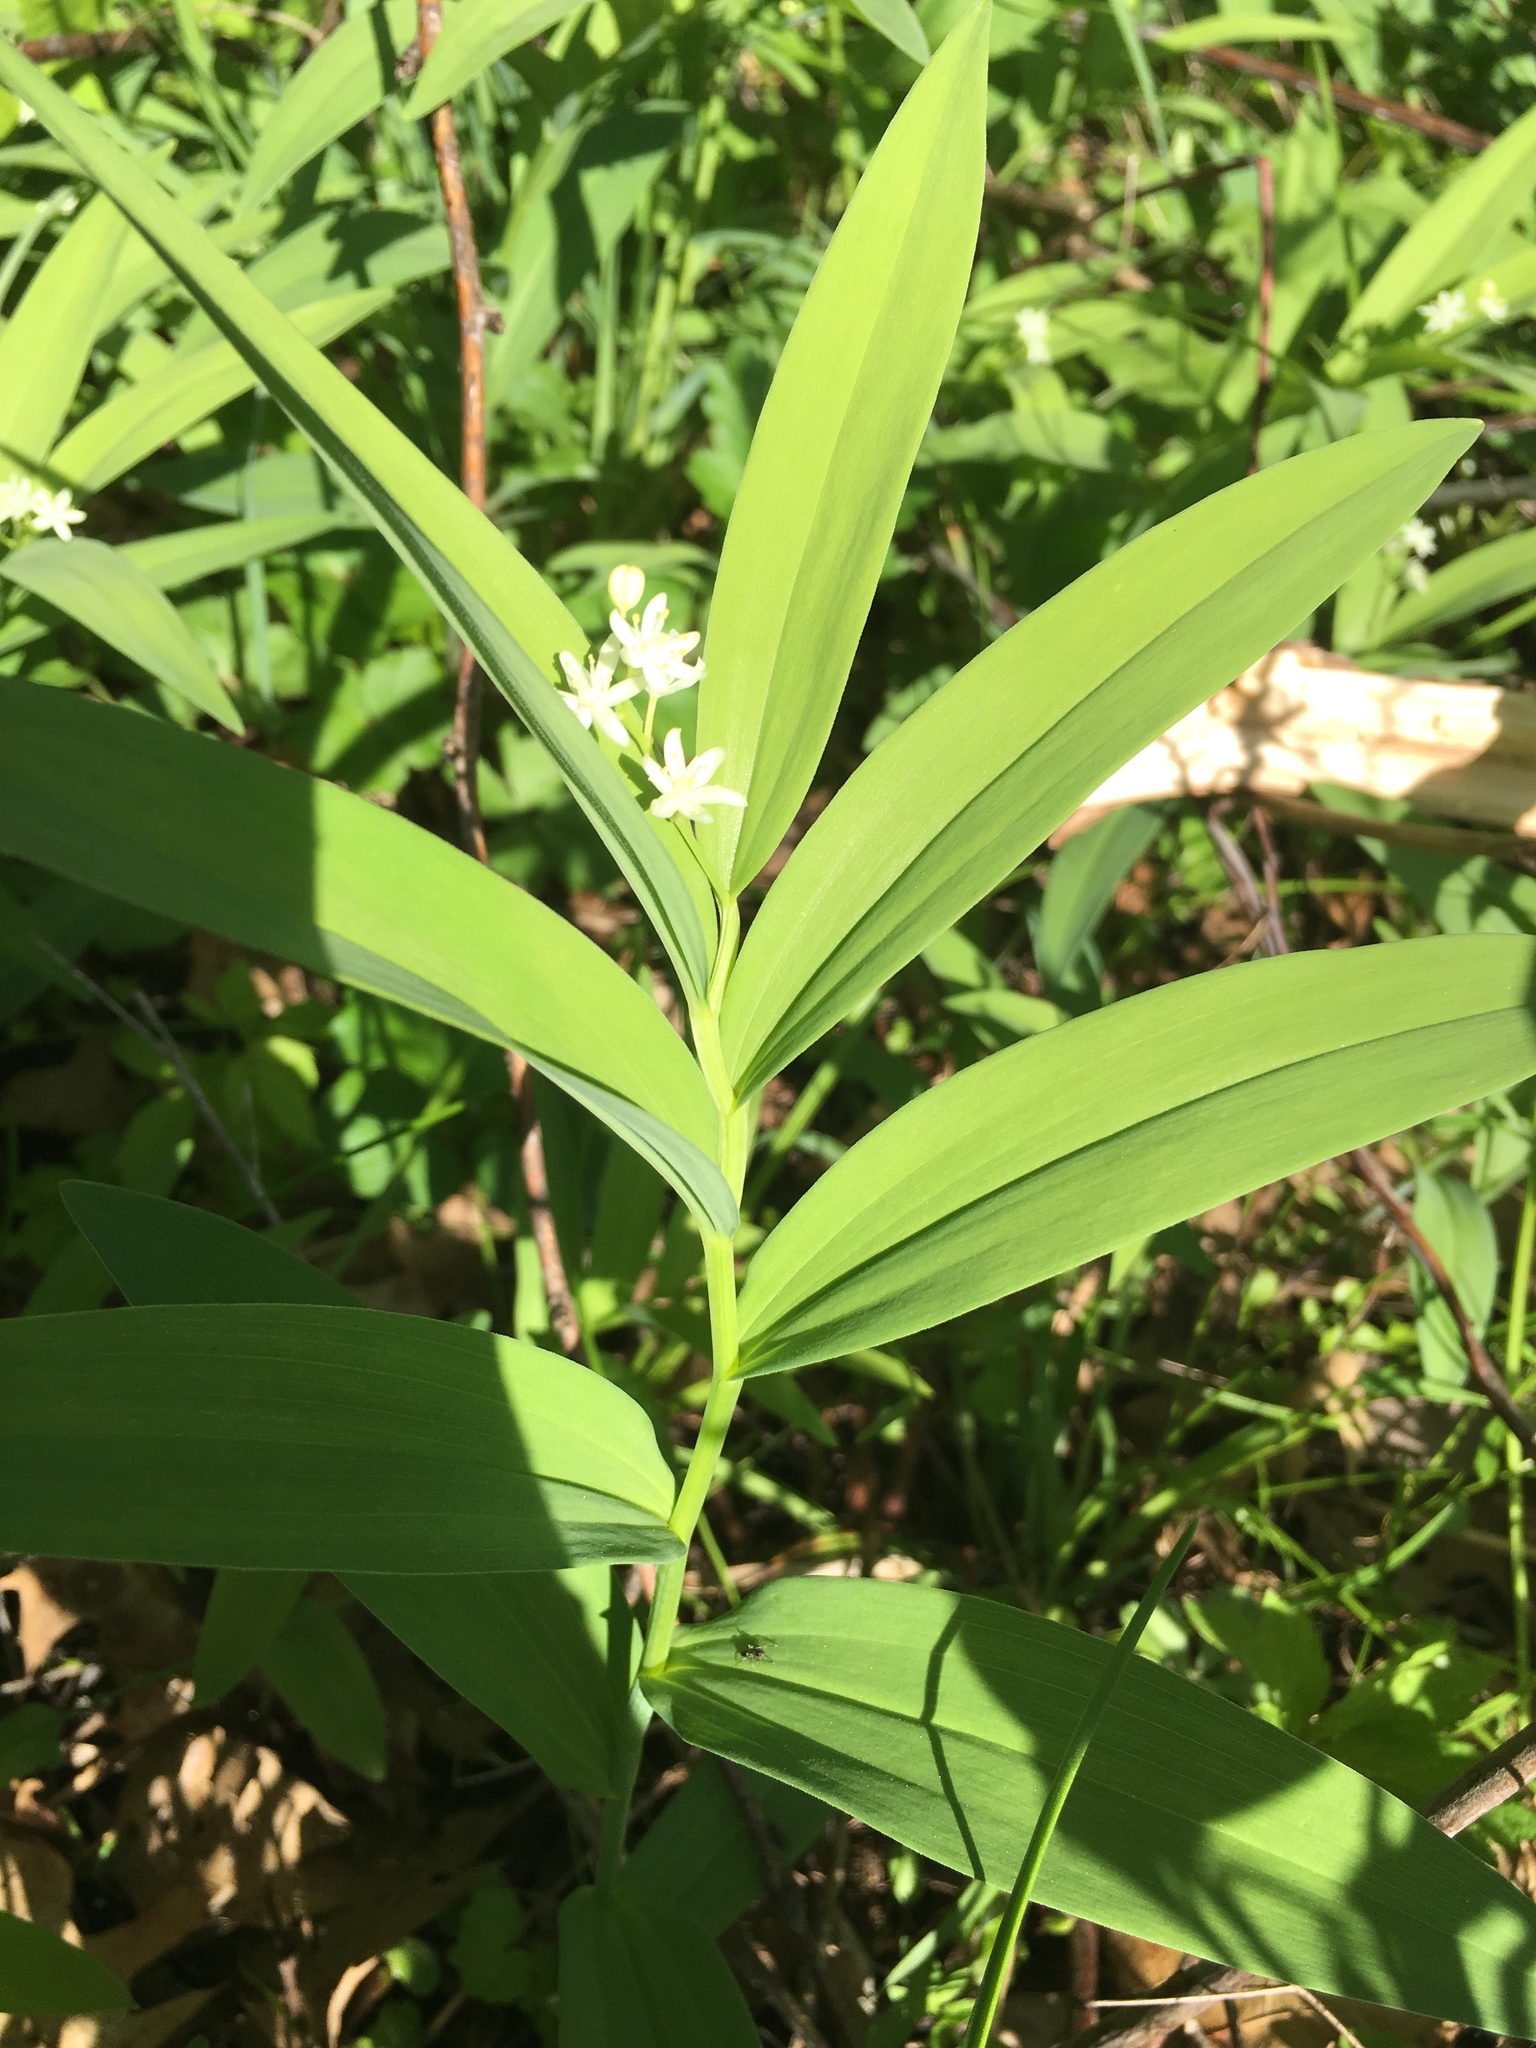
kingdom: Plantae
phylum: Tracheophyta
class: Liliopsida
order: Asparagales
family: Asparagaceae
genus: Maianthemum
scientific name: Maianthemum stellatum
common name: Little false solomon's seal
